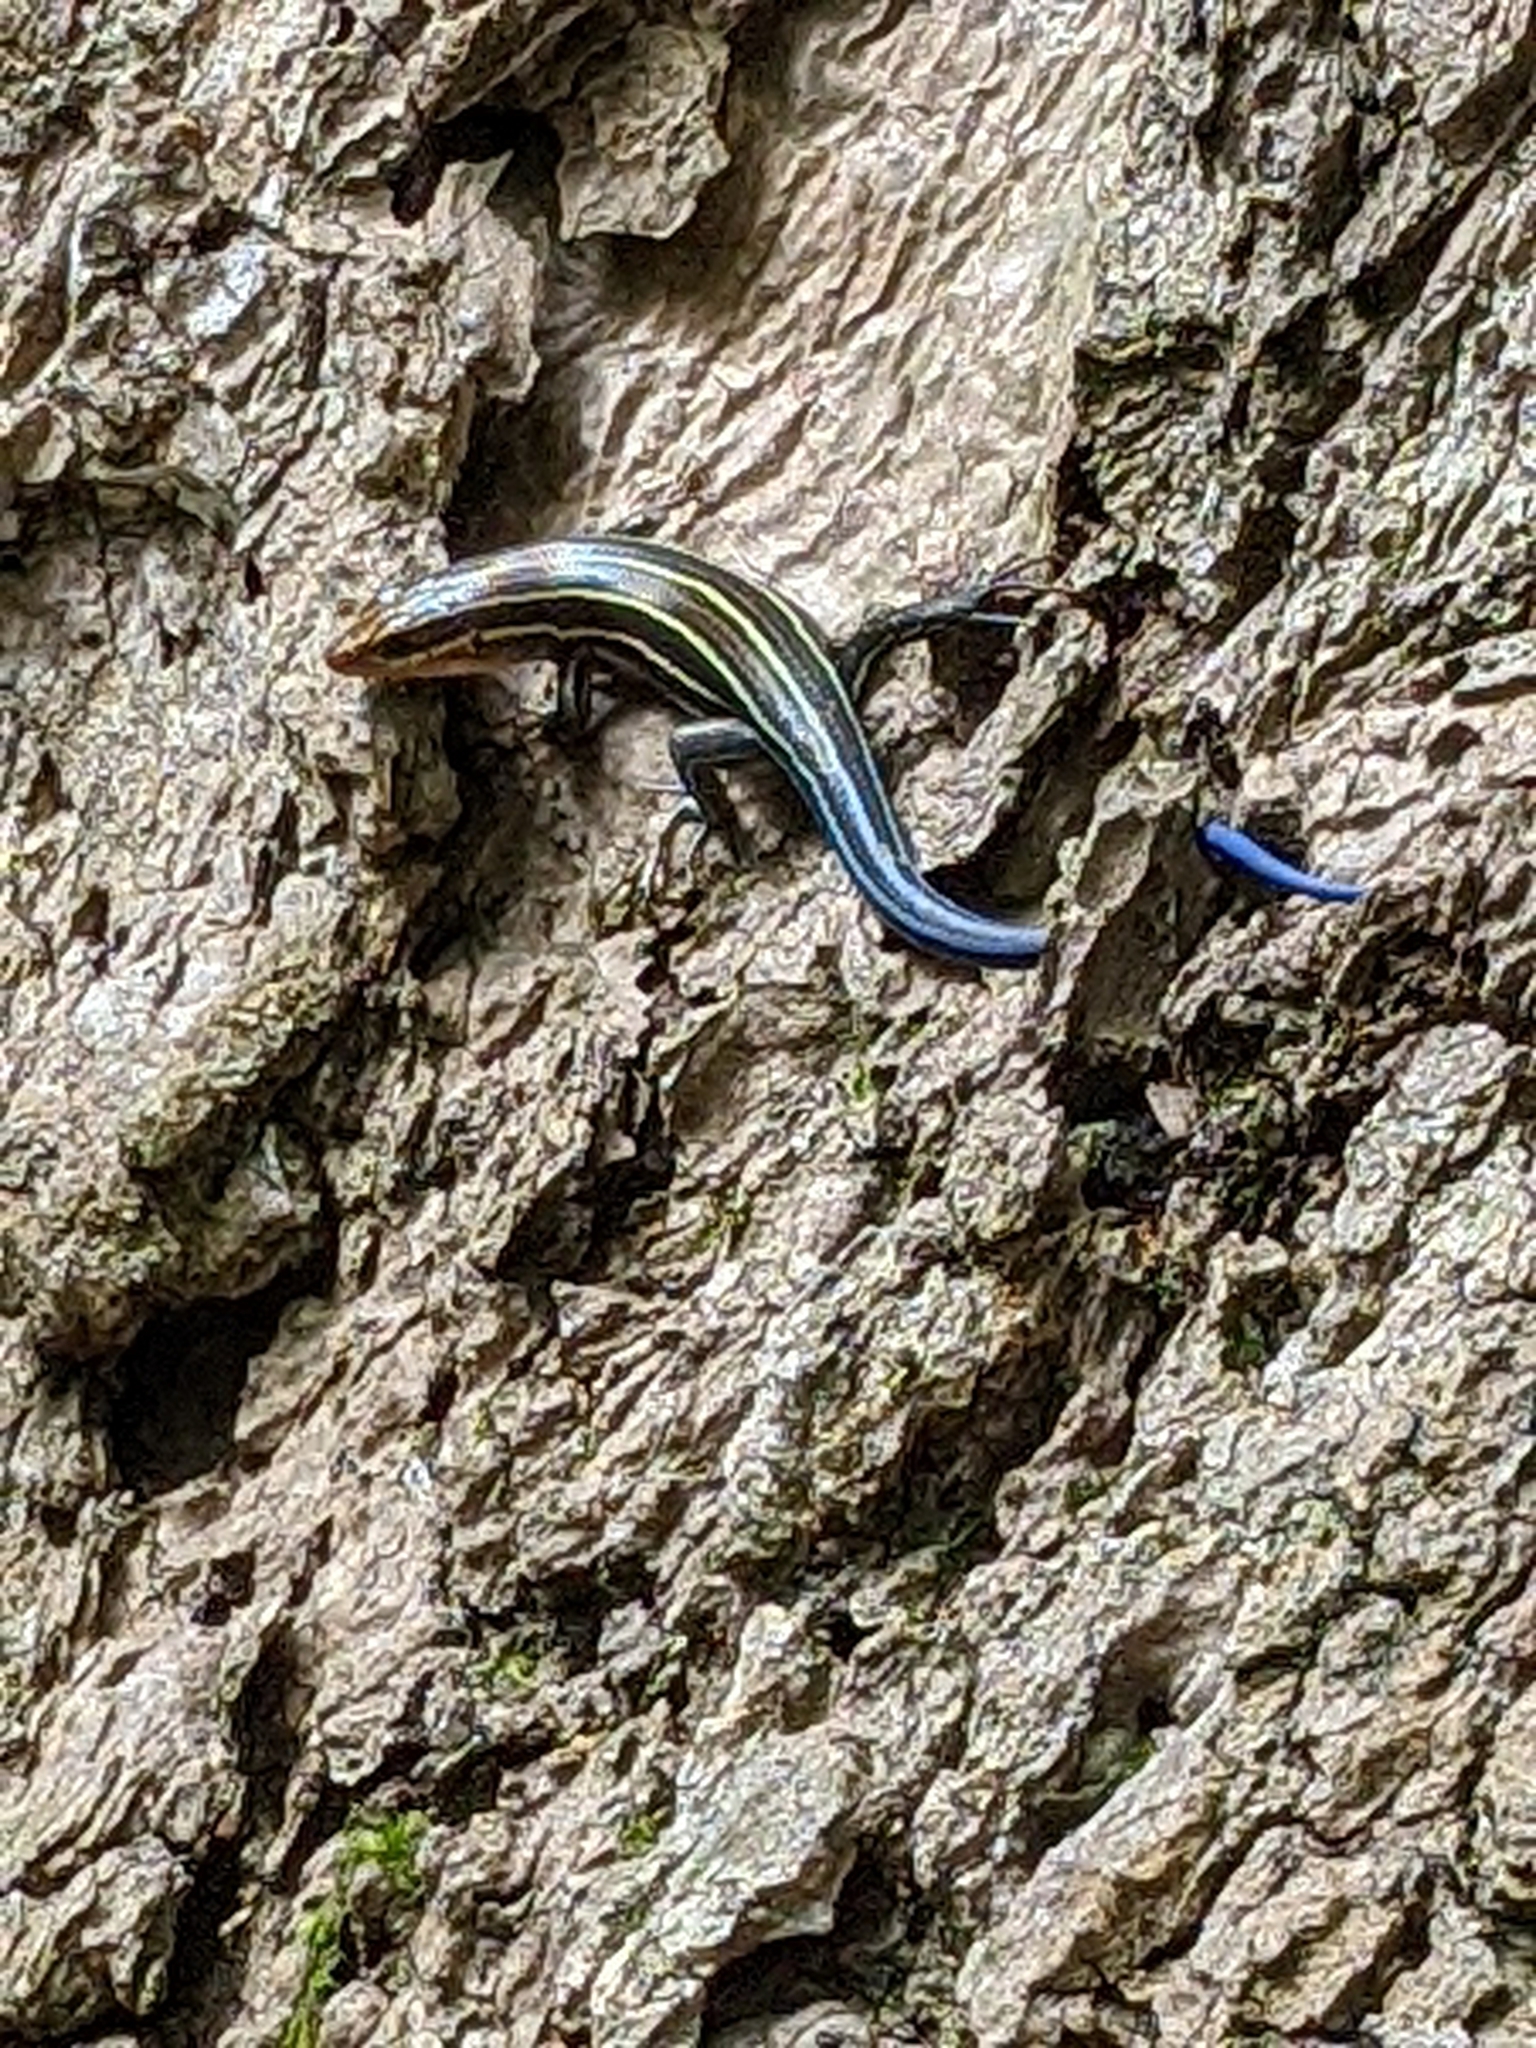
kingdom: Animalia
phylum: Chordata
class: Squamata
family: Scincidae
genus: Plestiodon
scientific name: Plestiodon laticeps
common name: Broadhead skink
